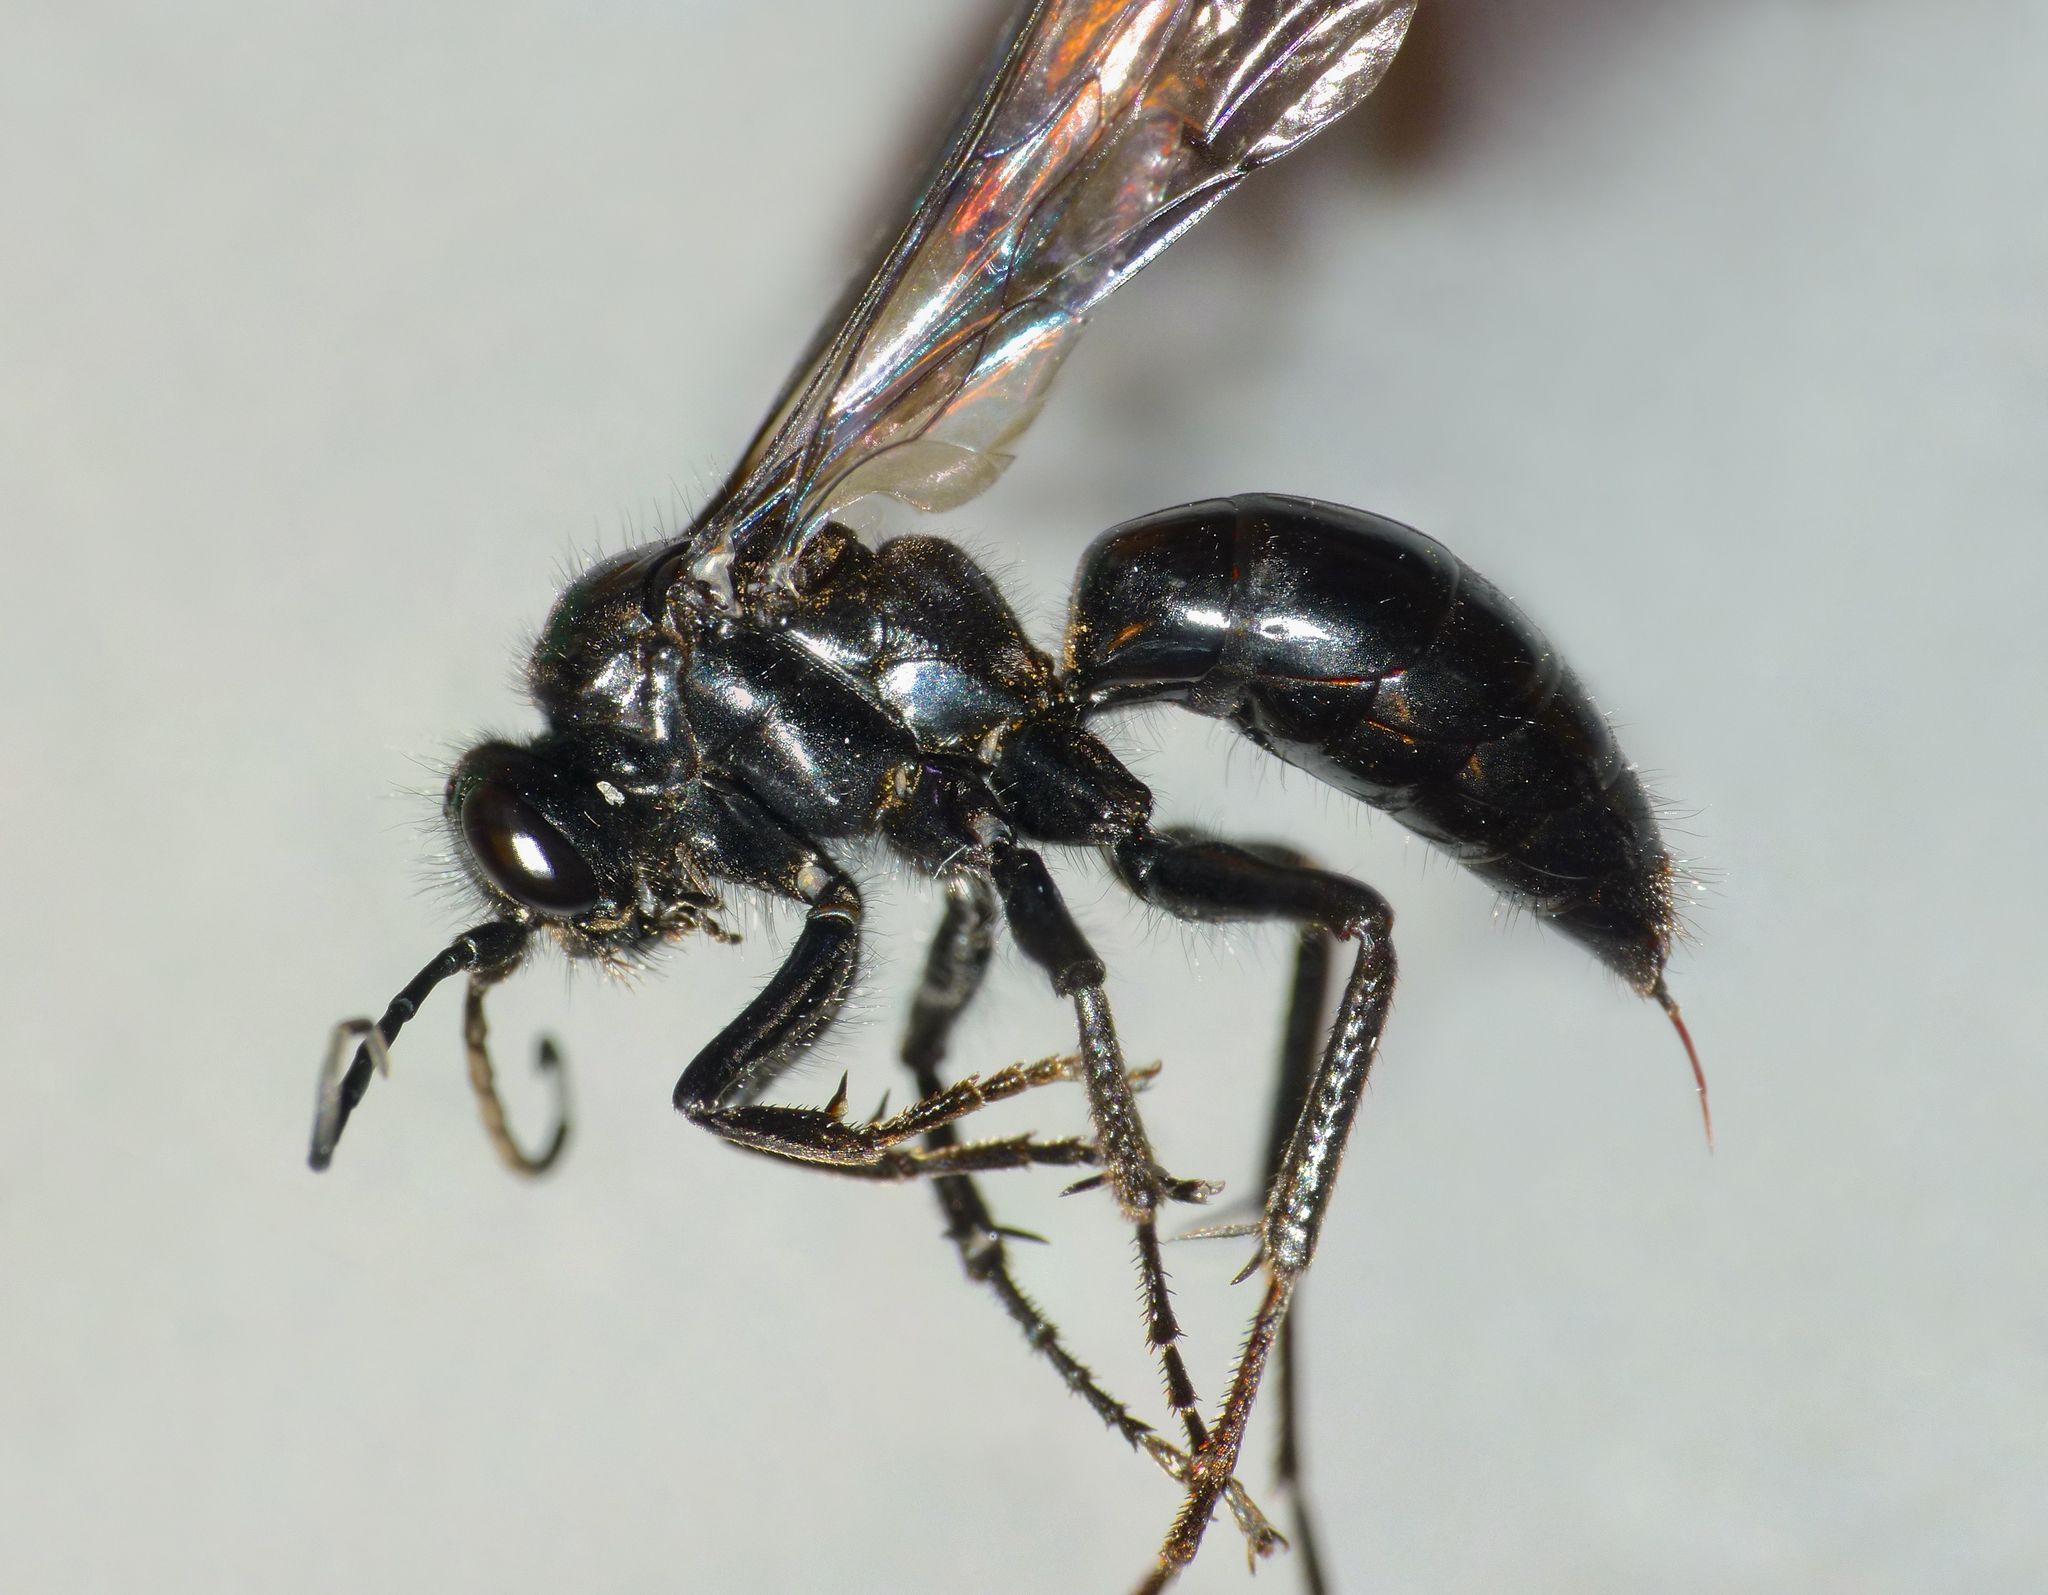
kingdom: Animalia
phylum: Arthropoda
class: Insecta
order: Hymenoptera
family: Pompilidae
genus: Priocnemis
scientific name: Priocnemis monachus
